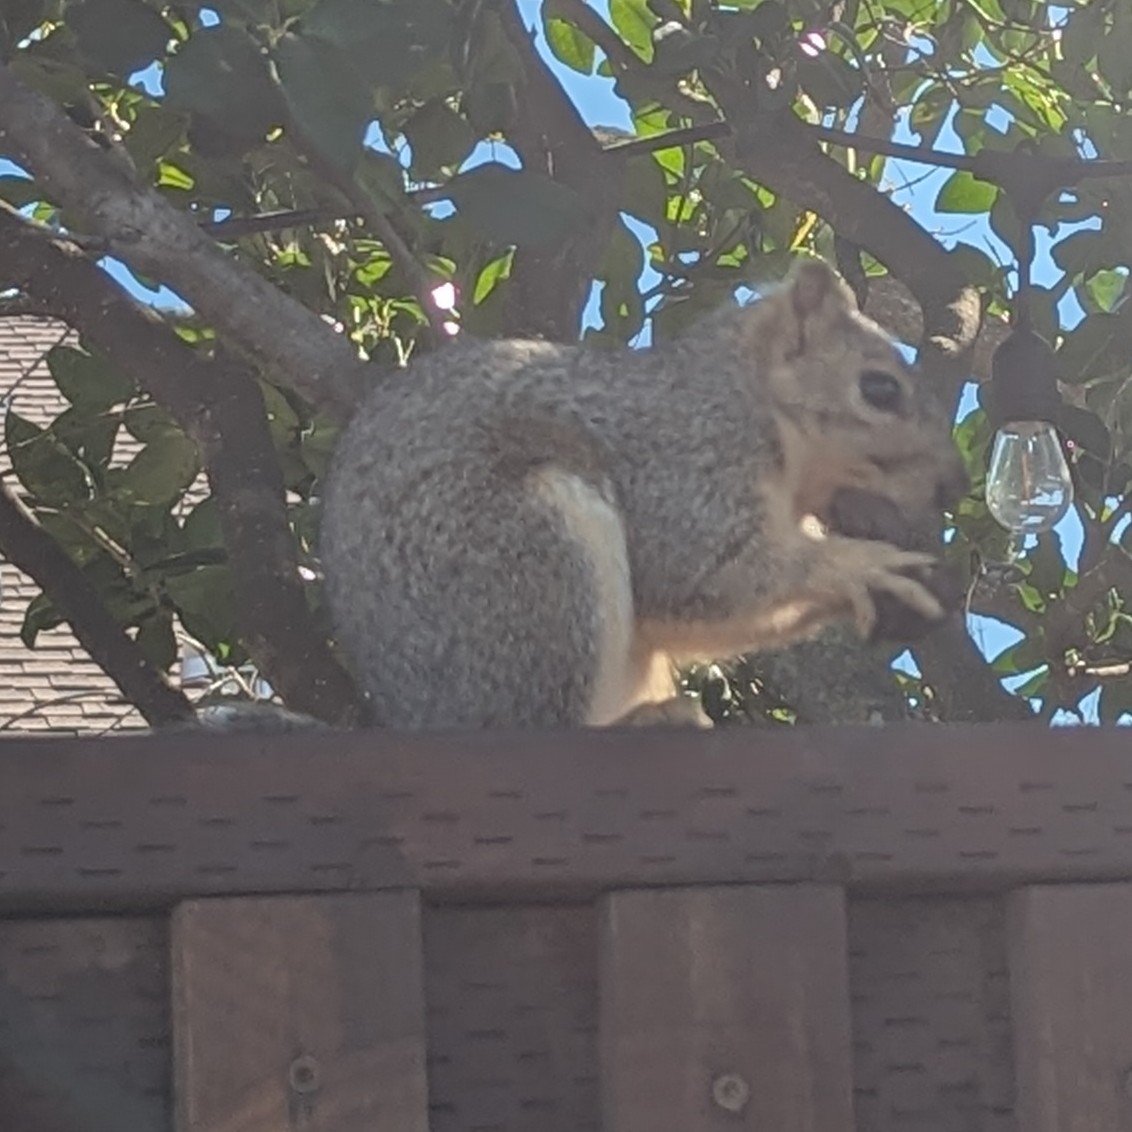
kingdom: Animalia
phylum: Chordata
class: Mammalia
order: Rodentia
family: Sciuridae
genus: Sciurus
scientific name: Sciurus niger
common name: Fox squirrel
